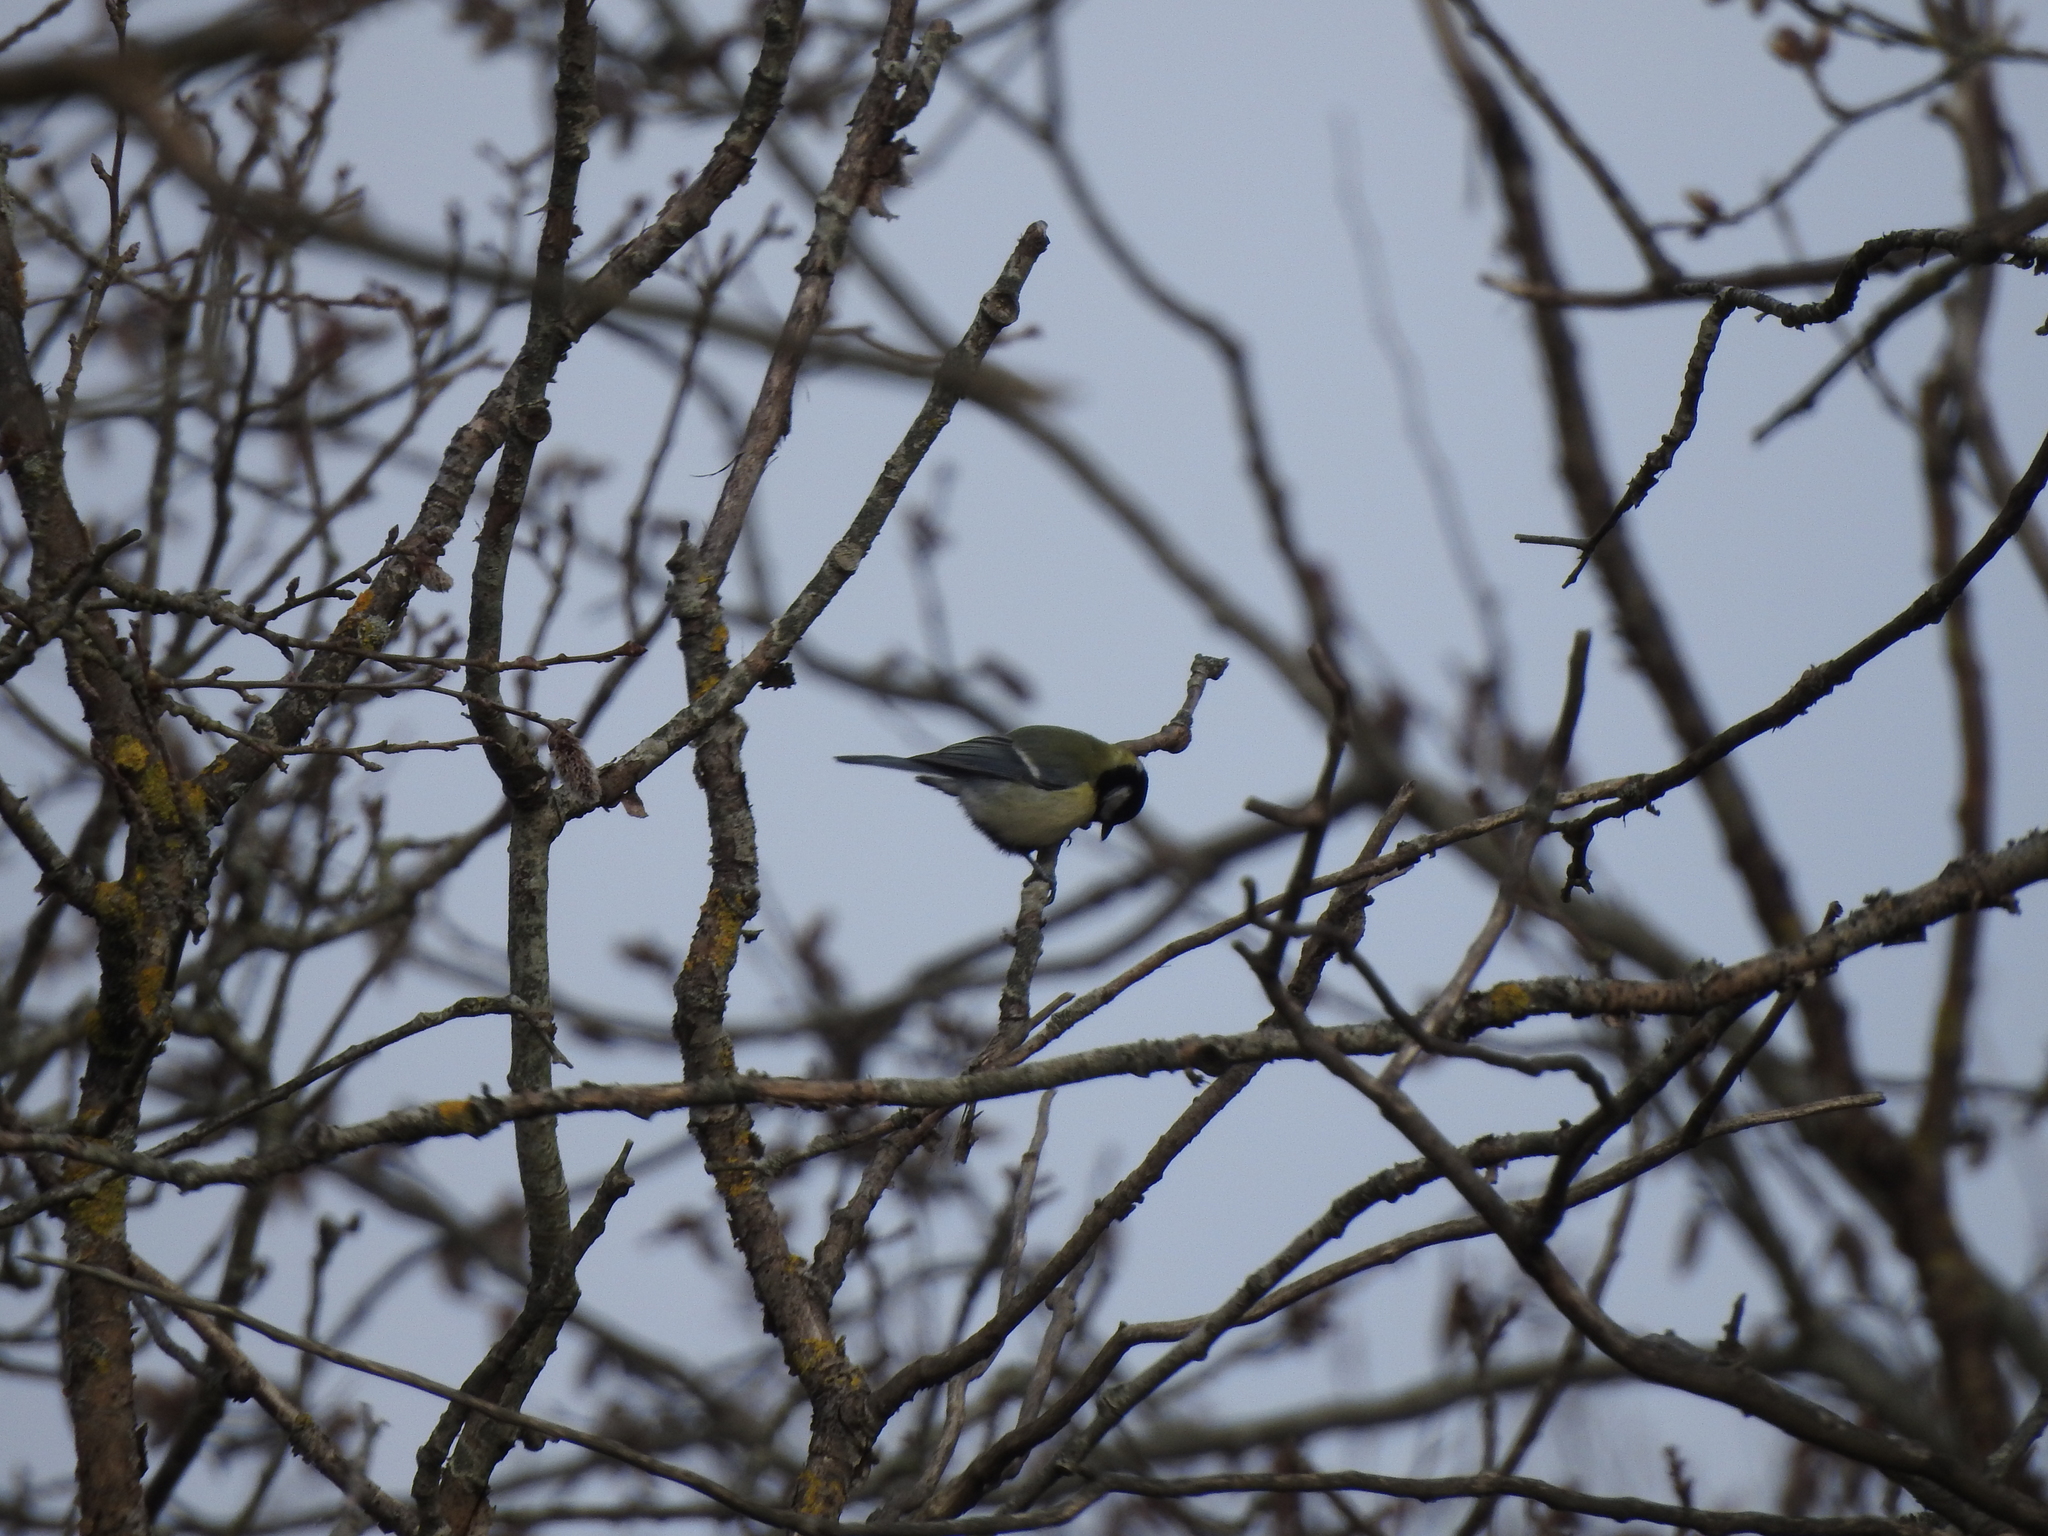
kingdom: Animalia
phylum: Chordata
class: Aves
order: Passeriformes
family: Paridae
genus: Parus
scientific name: Parus major
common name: Great tit
